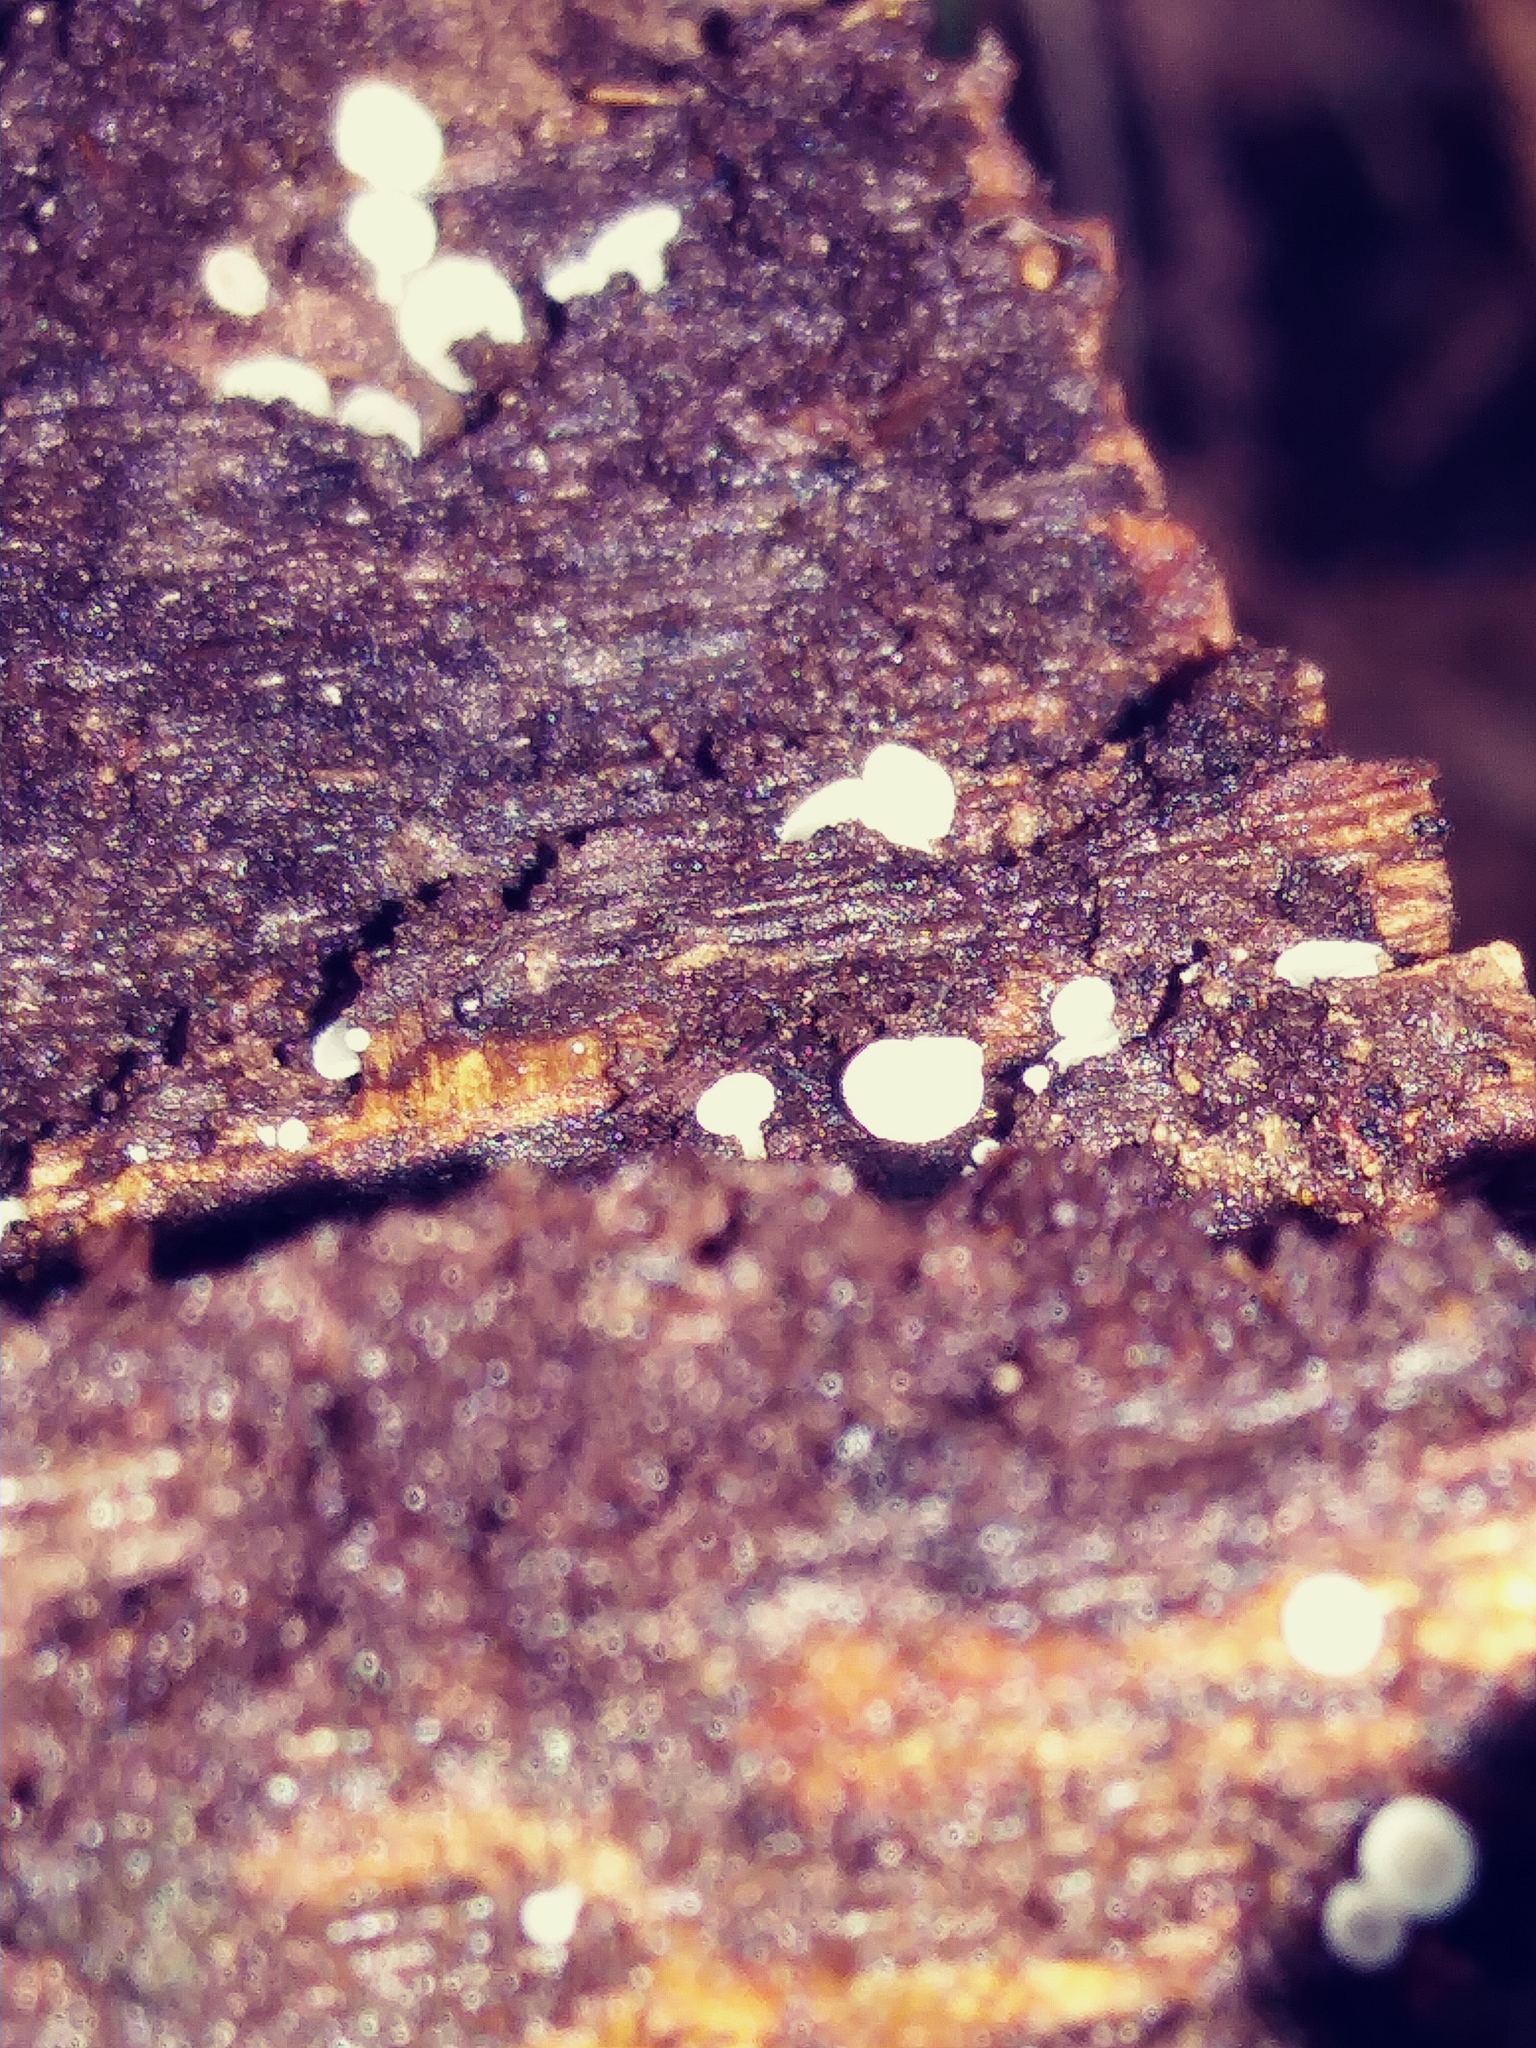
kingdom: Fungi
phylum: Ascomycota
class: Leotiomycetes
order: Helotiales
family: Lachnaceae
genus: Lachnum
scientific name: Lachnum virgineum
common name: Snowy disco
